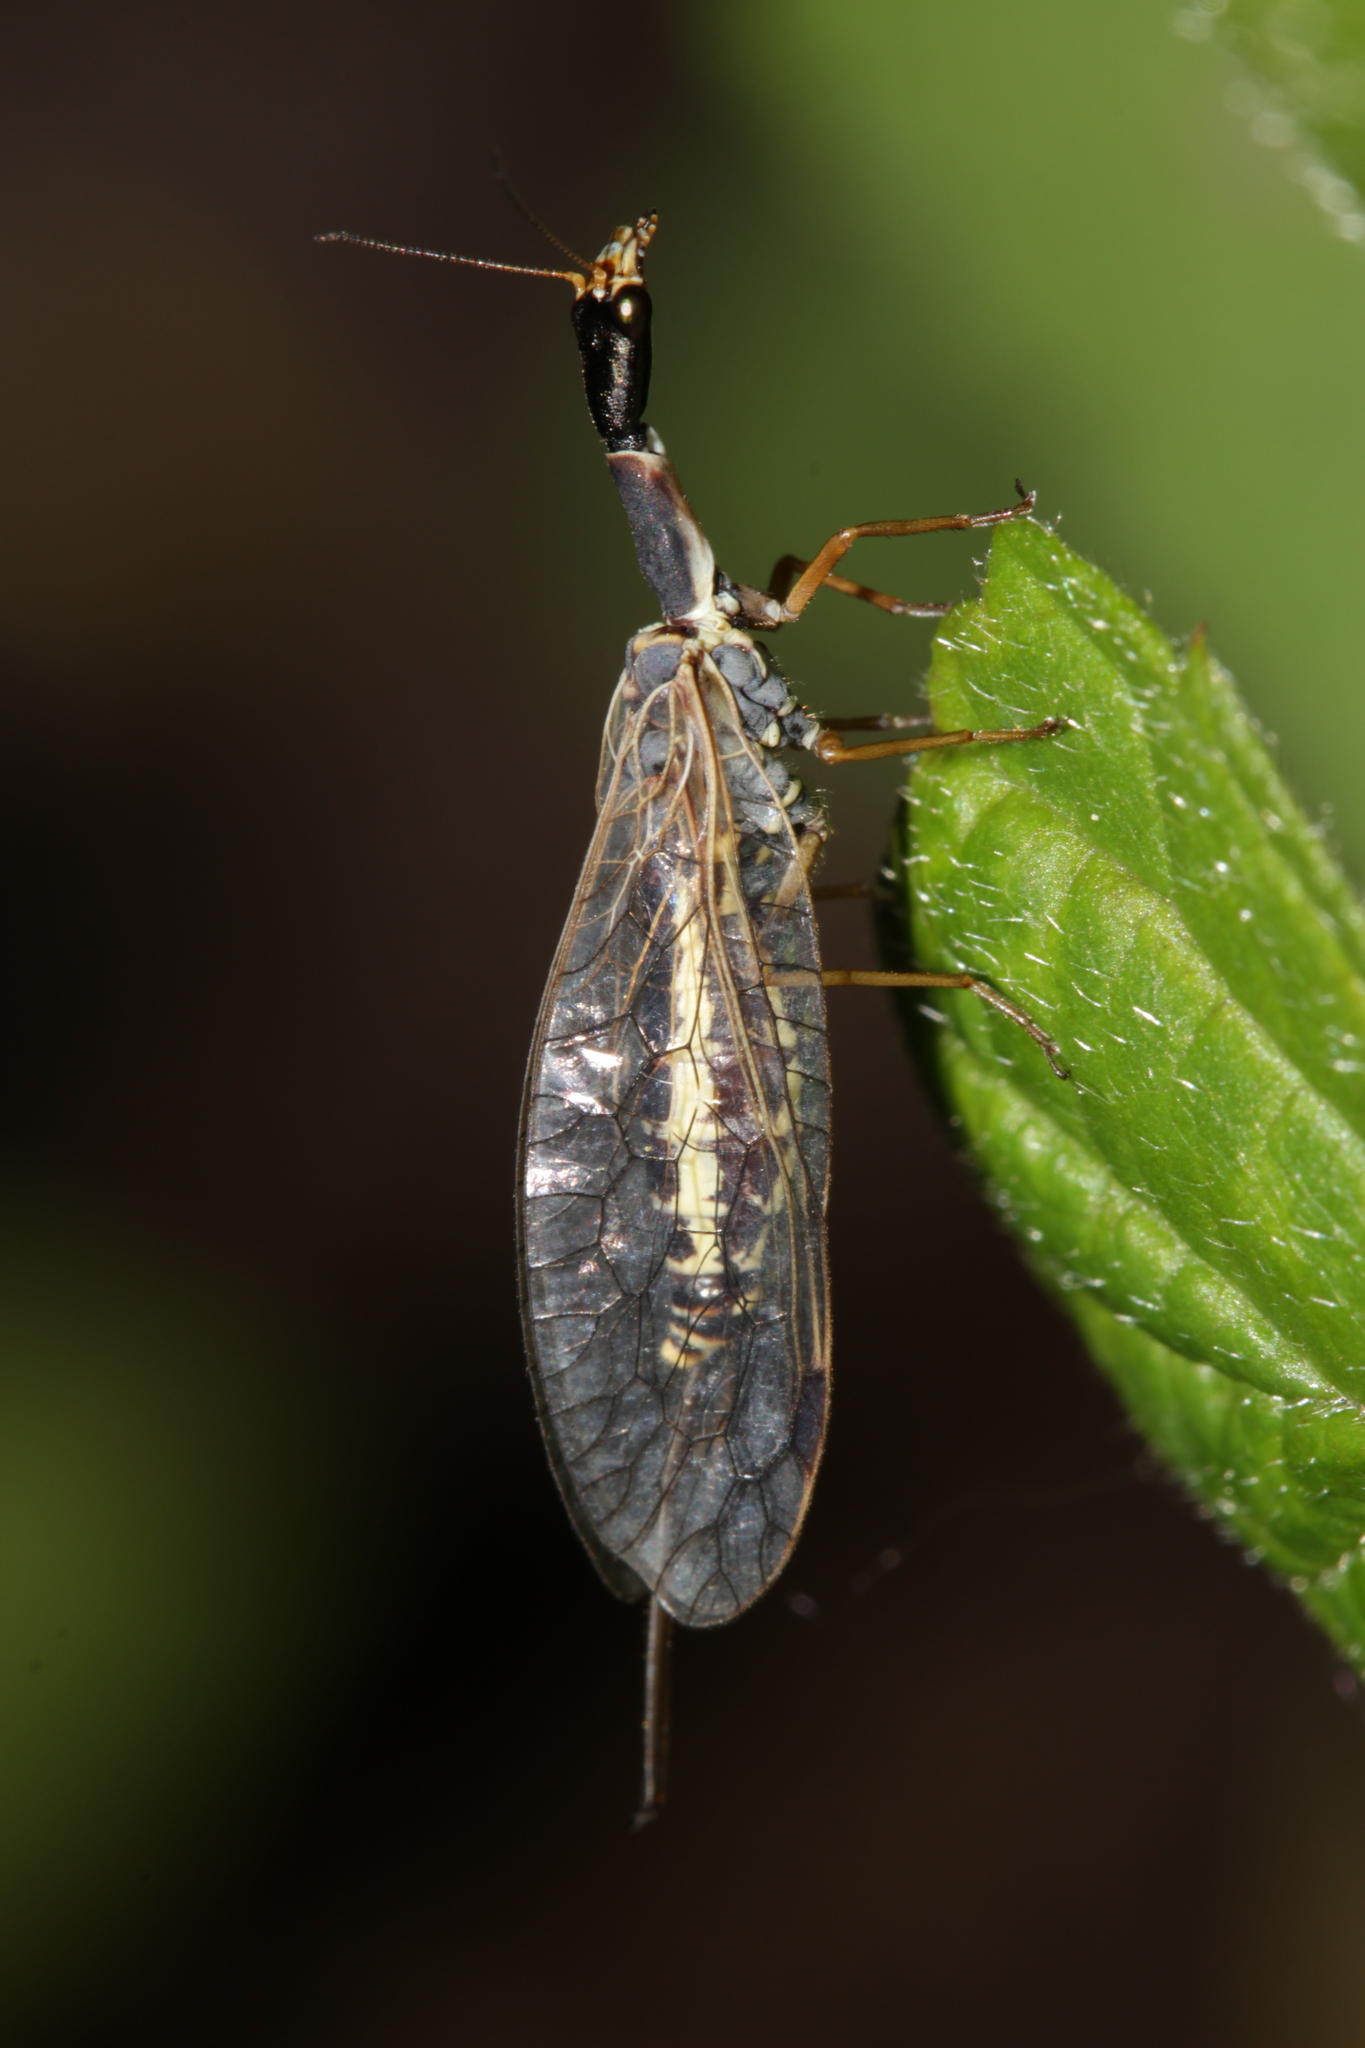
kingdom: Animalia
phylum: Arthropoda
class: Insecta
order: Raphidioptera
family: Raphidiidae
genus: Ornatoraphidia
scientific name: Ornatoraphidia flavilabris
